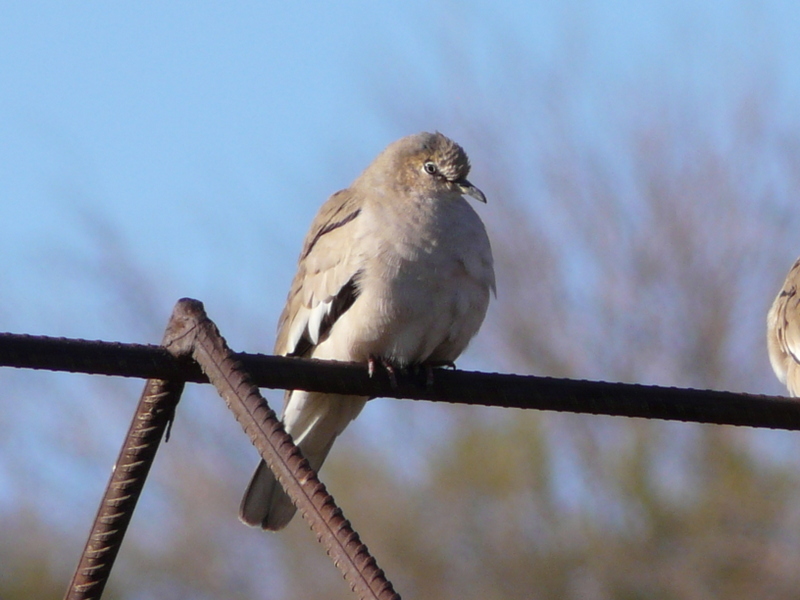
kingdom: Animalia
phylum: Chordata
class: Aves
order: Columbiformes
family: Columbidae
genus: Columbina
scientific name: Columbina picui
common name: Picui ground dove
